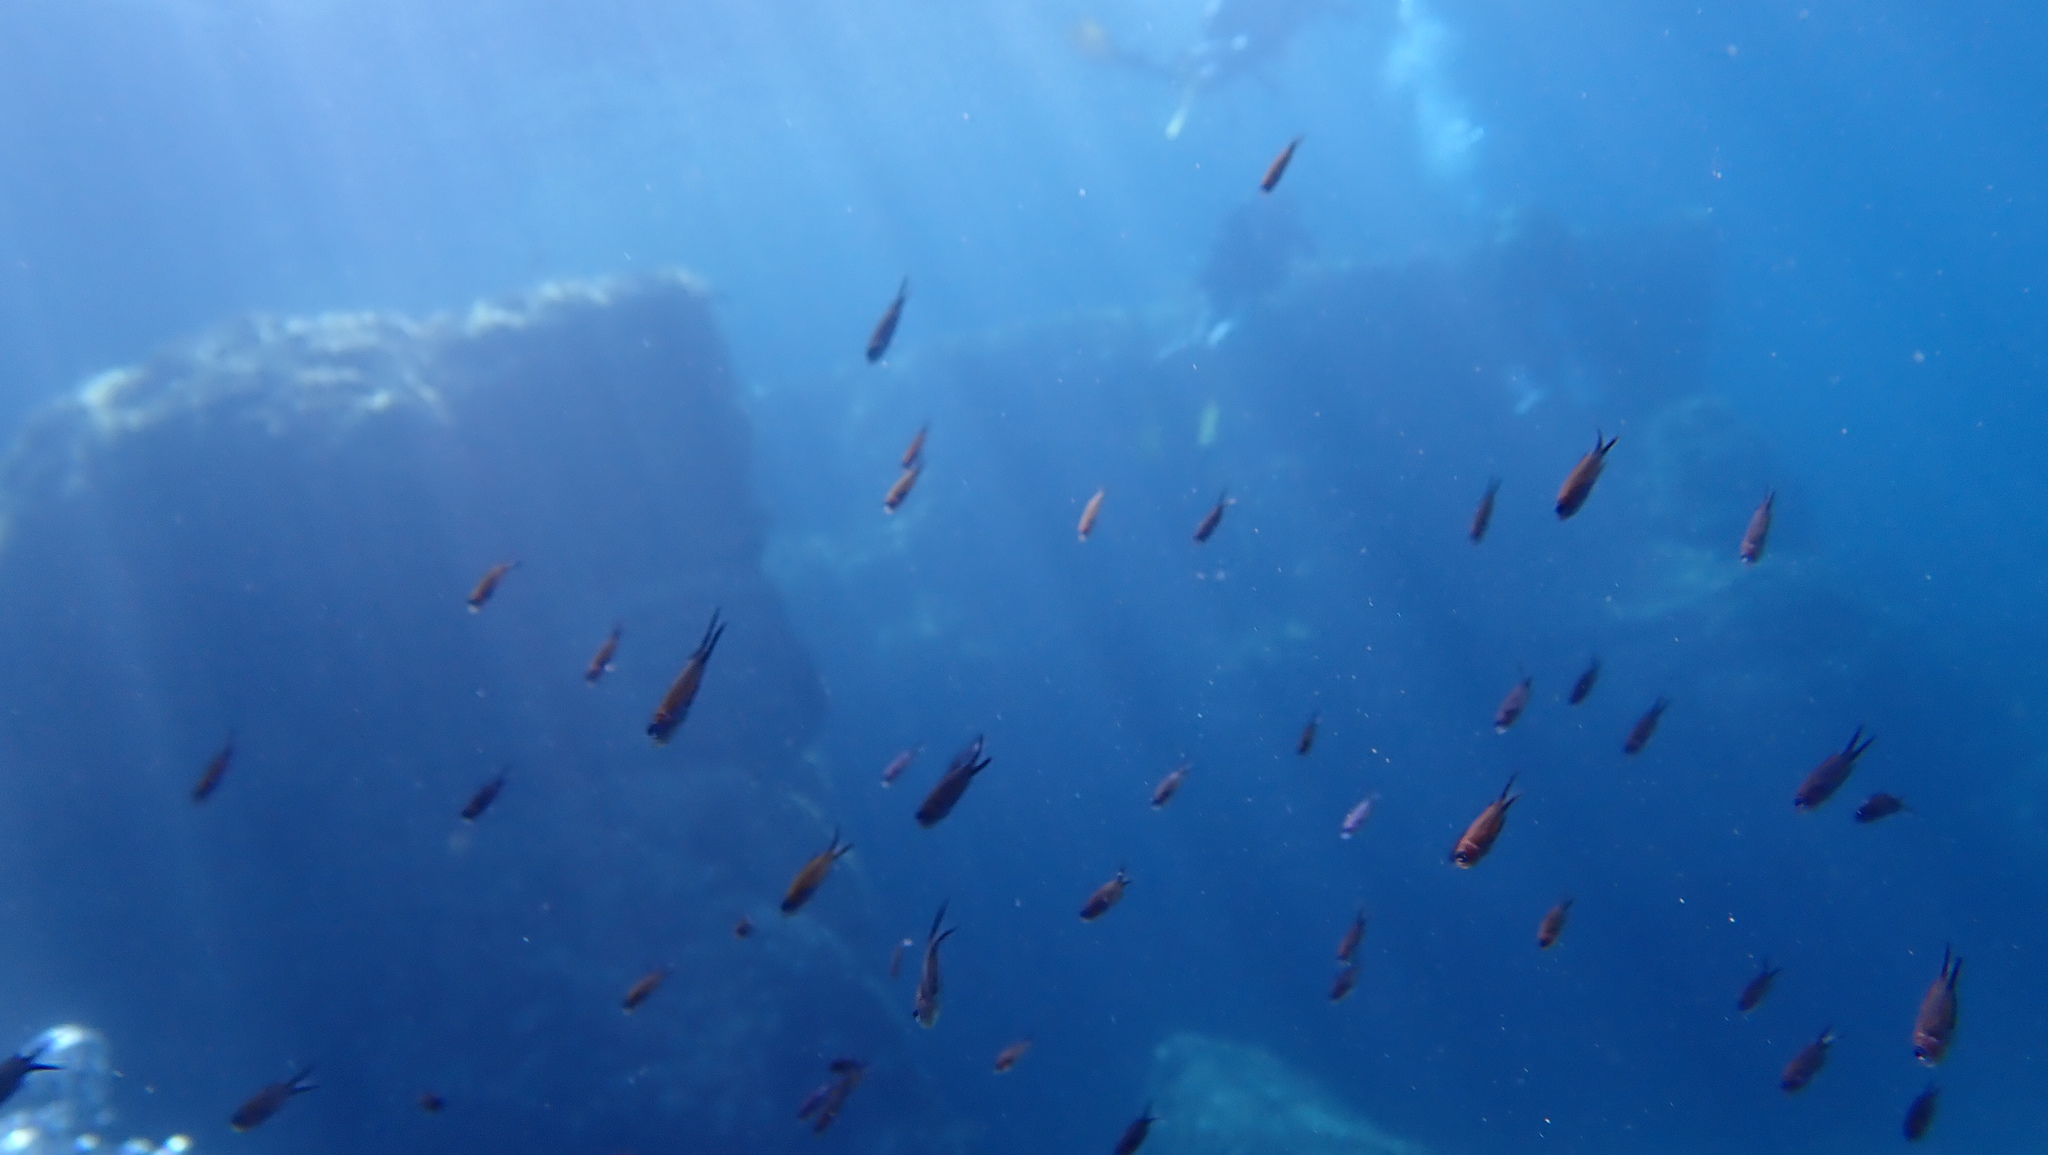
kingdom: Animalia
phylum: Chordata
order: Perciformes
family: Pomacentridae
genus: Chromis
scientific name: Chromis chromis
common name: Damselfish
